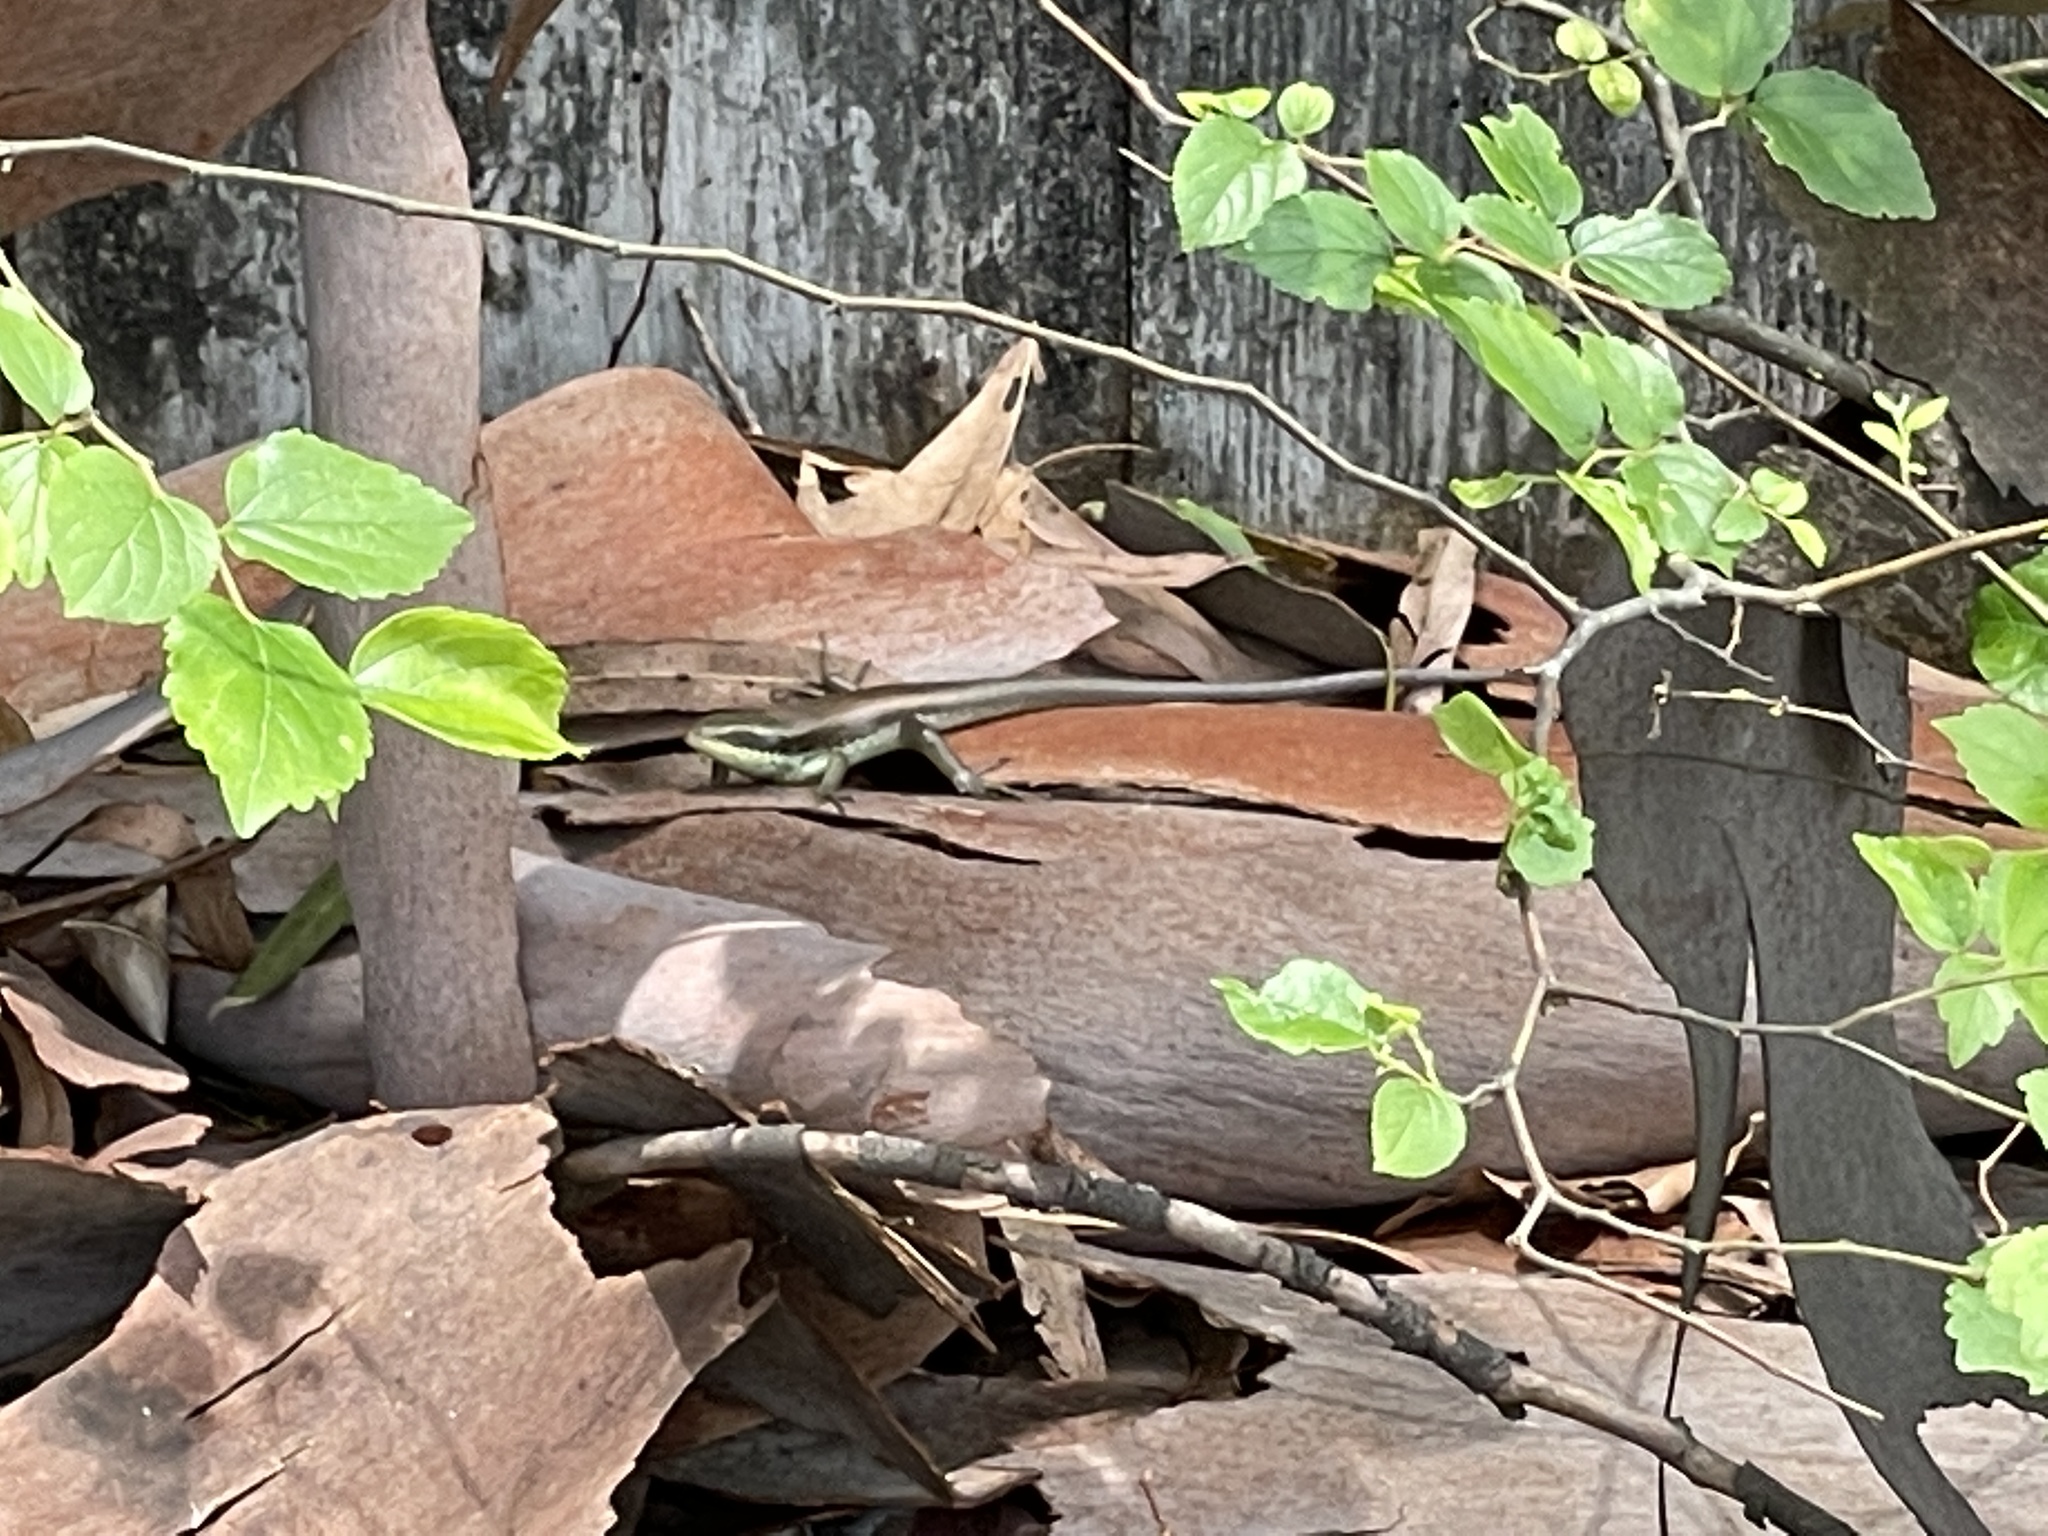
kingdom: Animalia
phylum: Chordata
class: Squamata
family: Scincidae
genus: Eutropis
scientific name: Eutropis longicaudata
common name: Long-tailed sun skink
